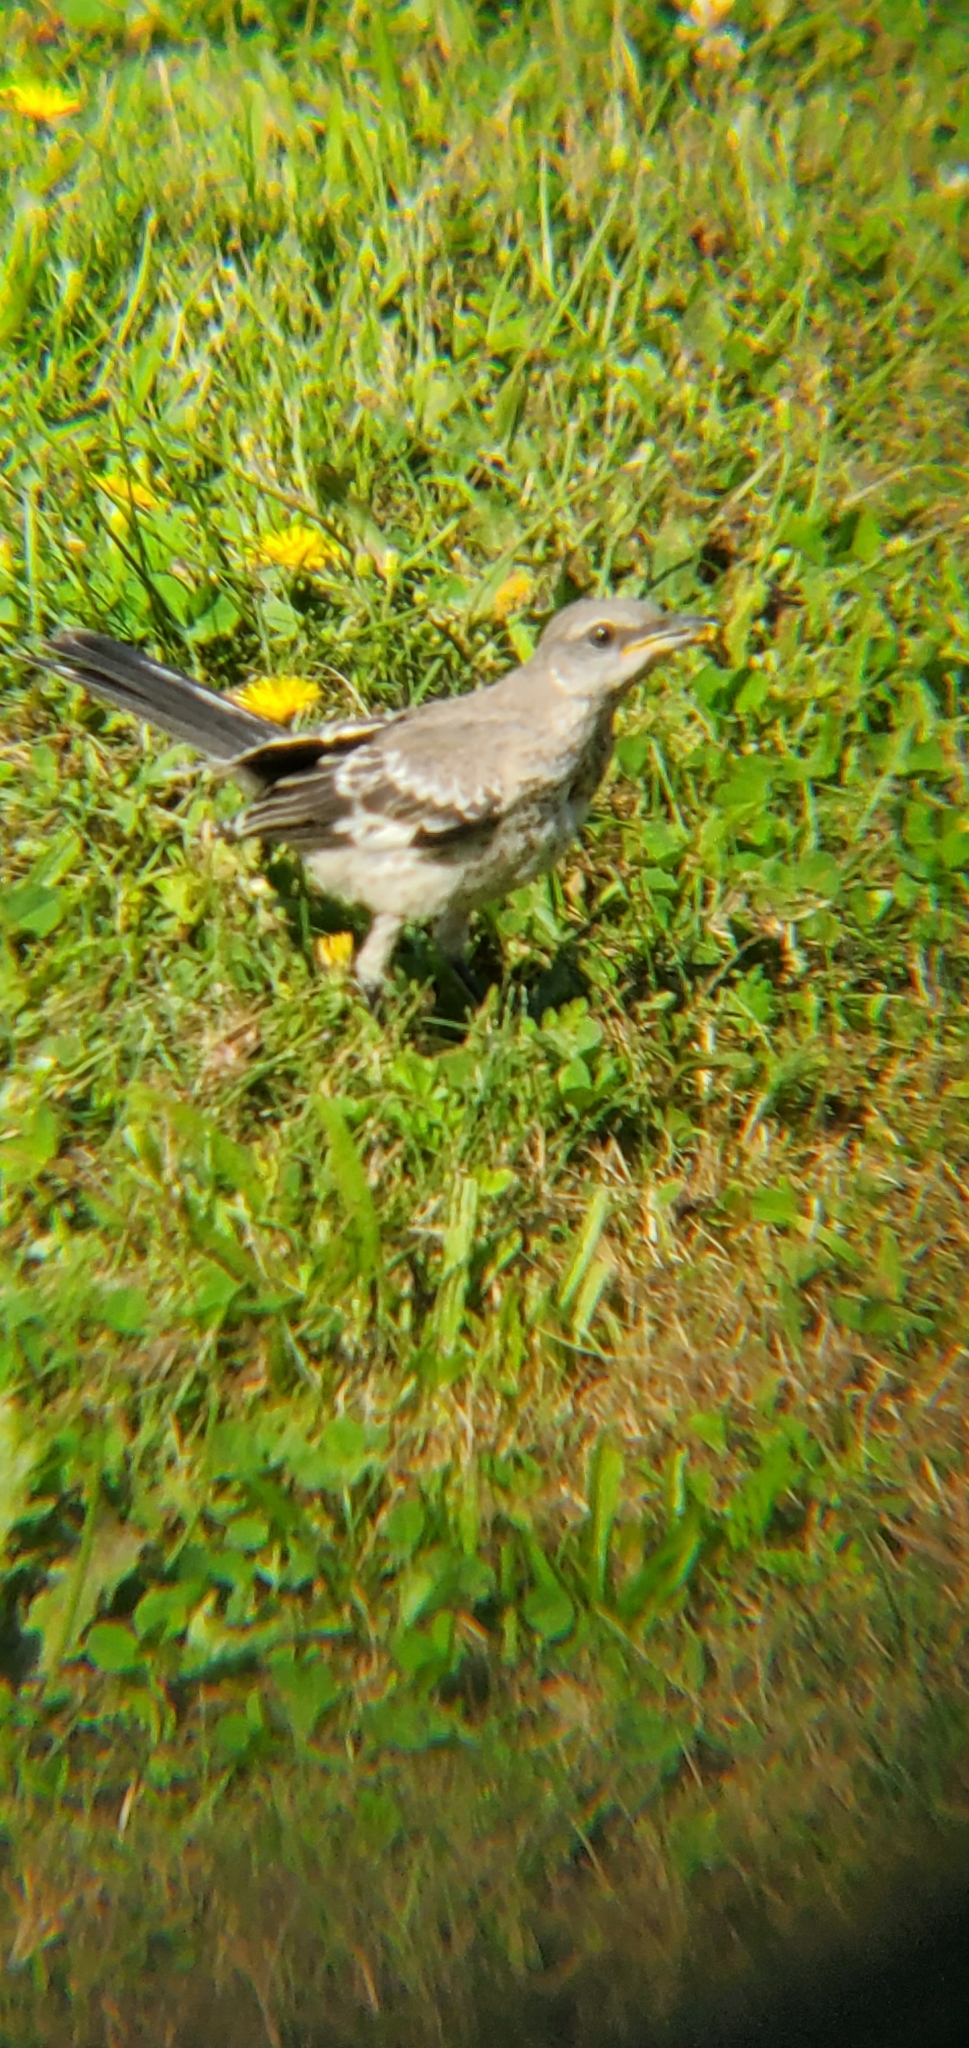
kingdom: Animalia
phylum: Chordata
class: Aves
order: Passeriformes
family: Mimidae
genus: Mimus
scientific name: Mimus polyglottos
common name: Northern mockingbird
